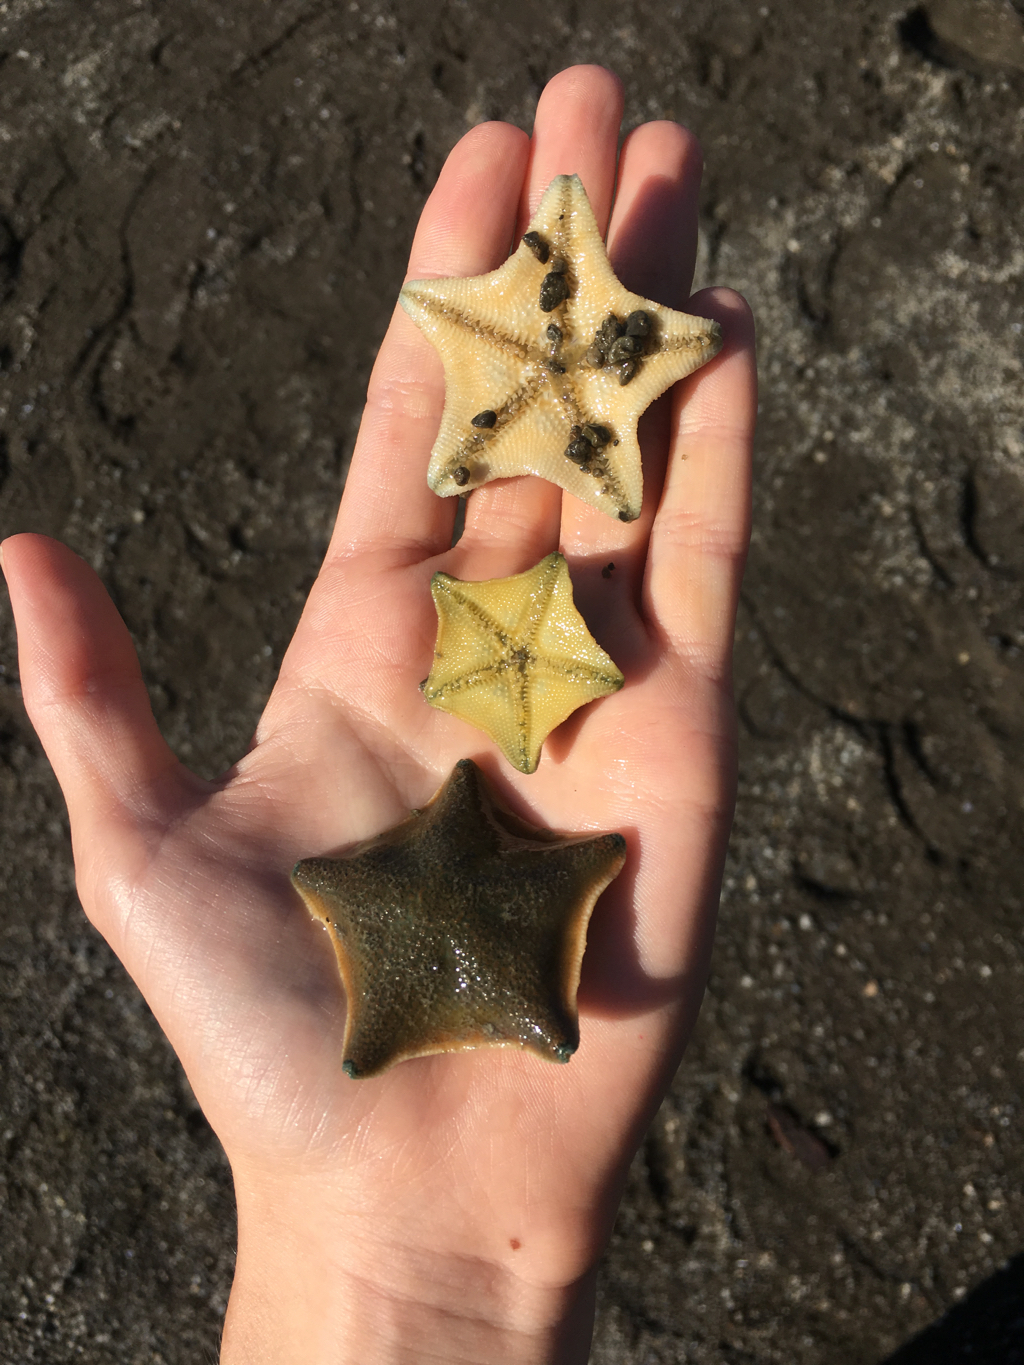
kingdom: Animalia
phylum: Echinodermata
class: Asteroidea
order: Valvatida
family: Asterinidae
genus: Patiriella
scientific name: Patiriella regularis
